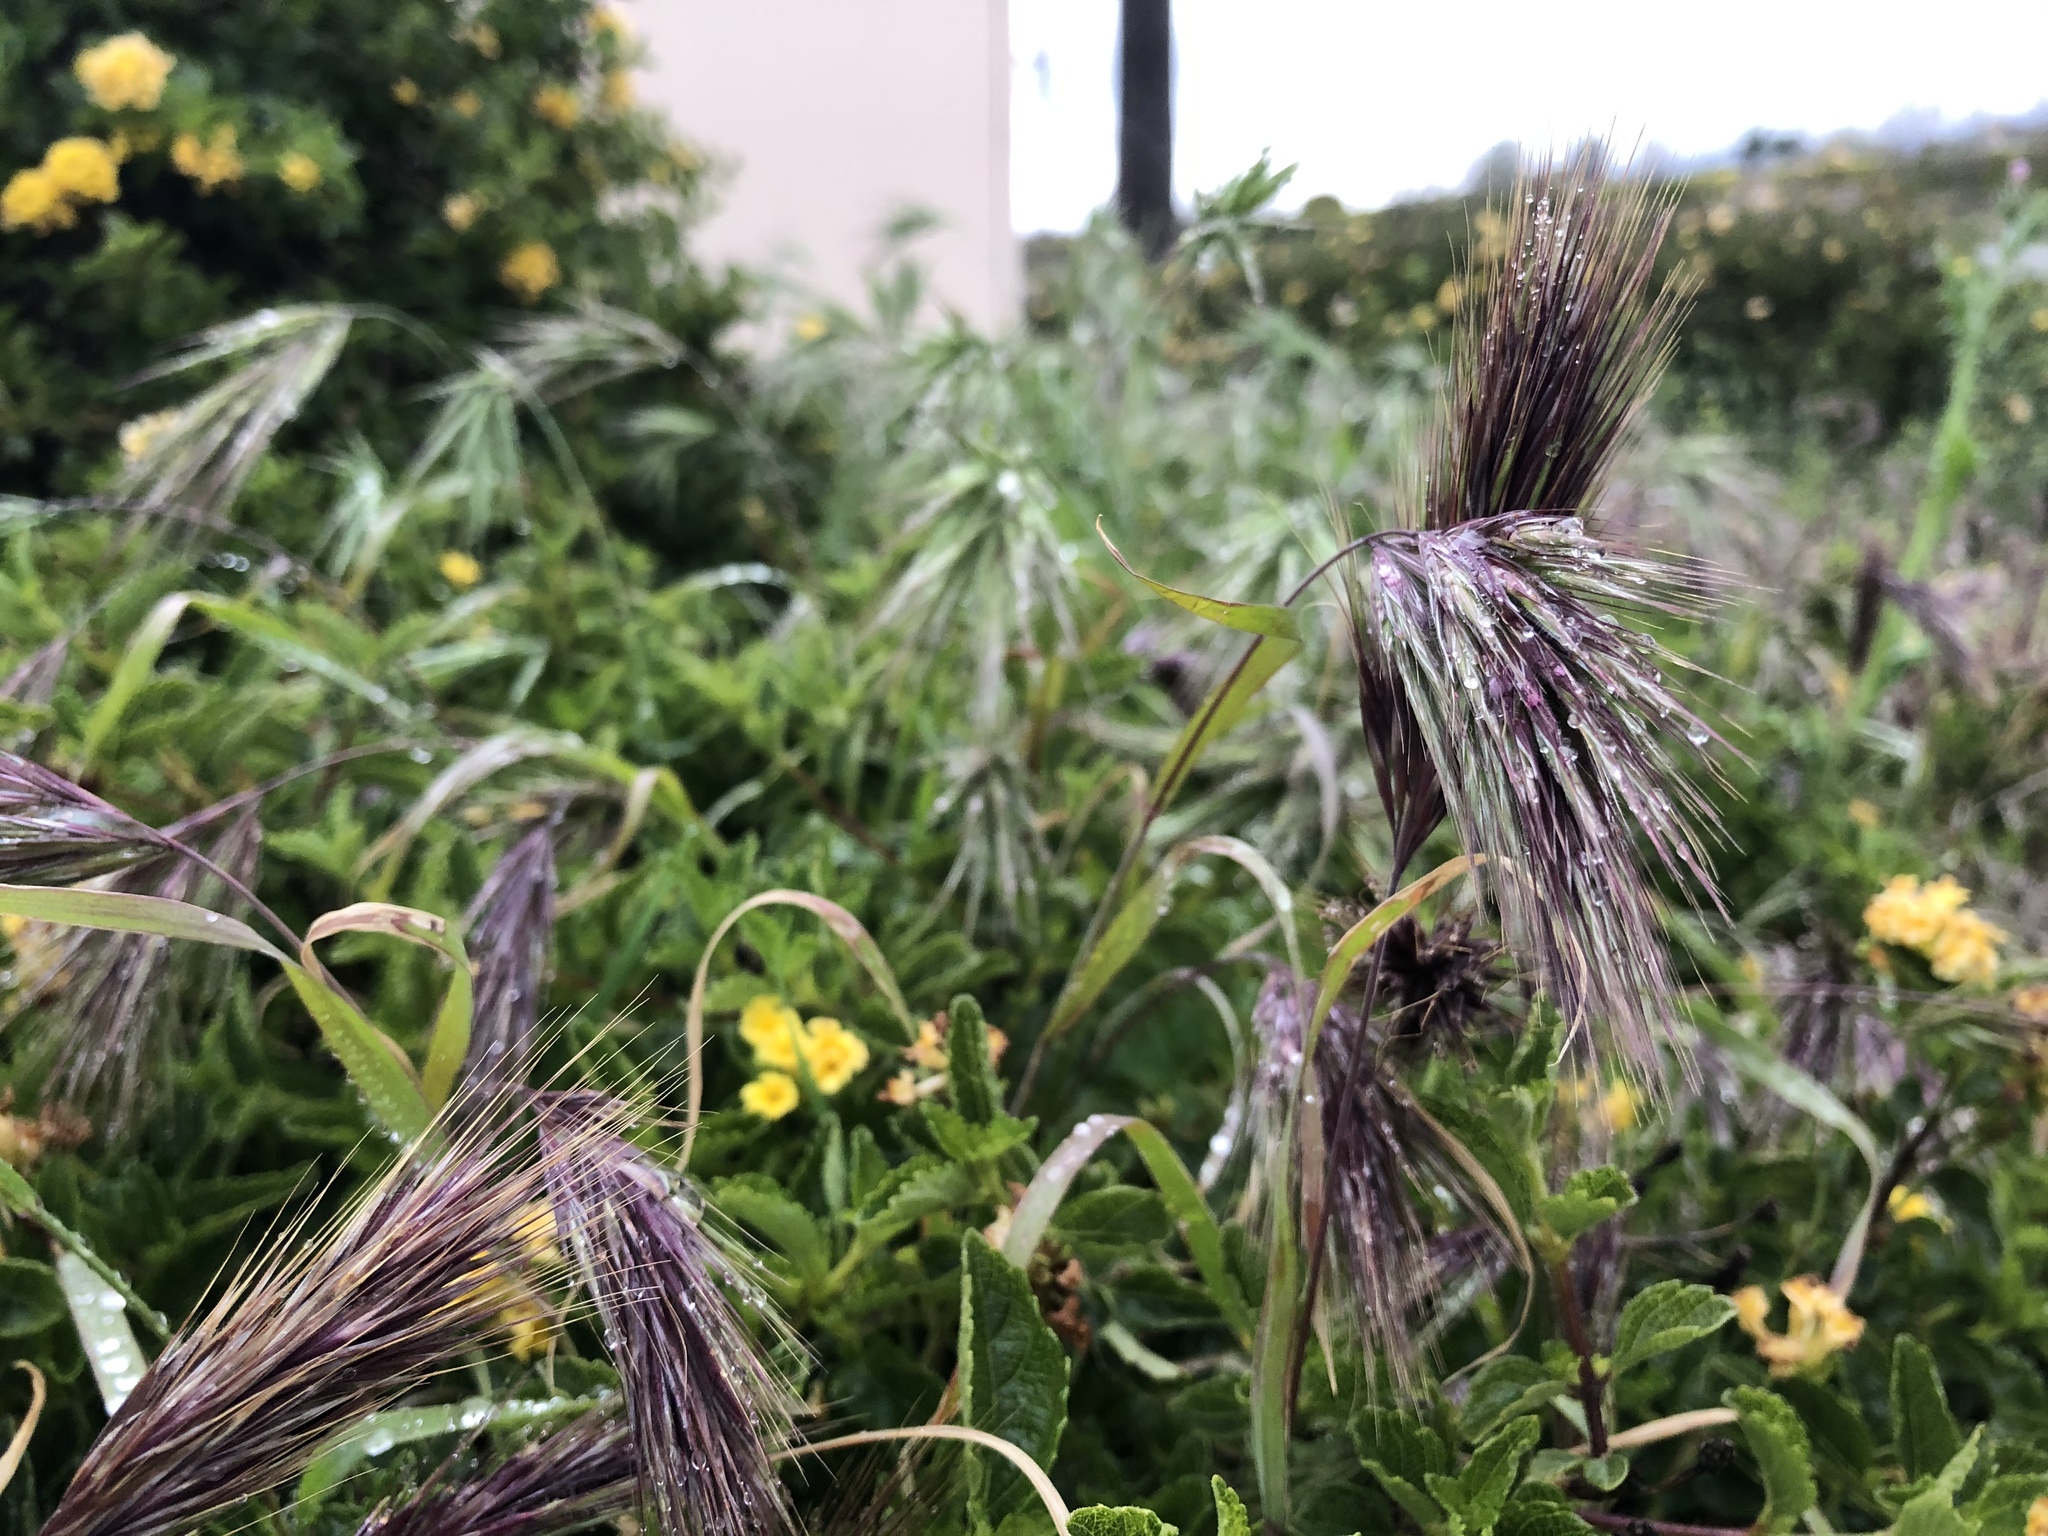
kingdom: Plantae
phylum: Tracheophyta
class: Liliopsida
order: Poales
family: Poaceae
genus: Bromus
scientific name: Bromus rubens
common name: Red brome
